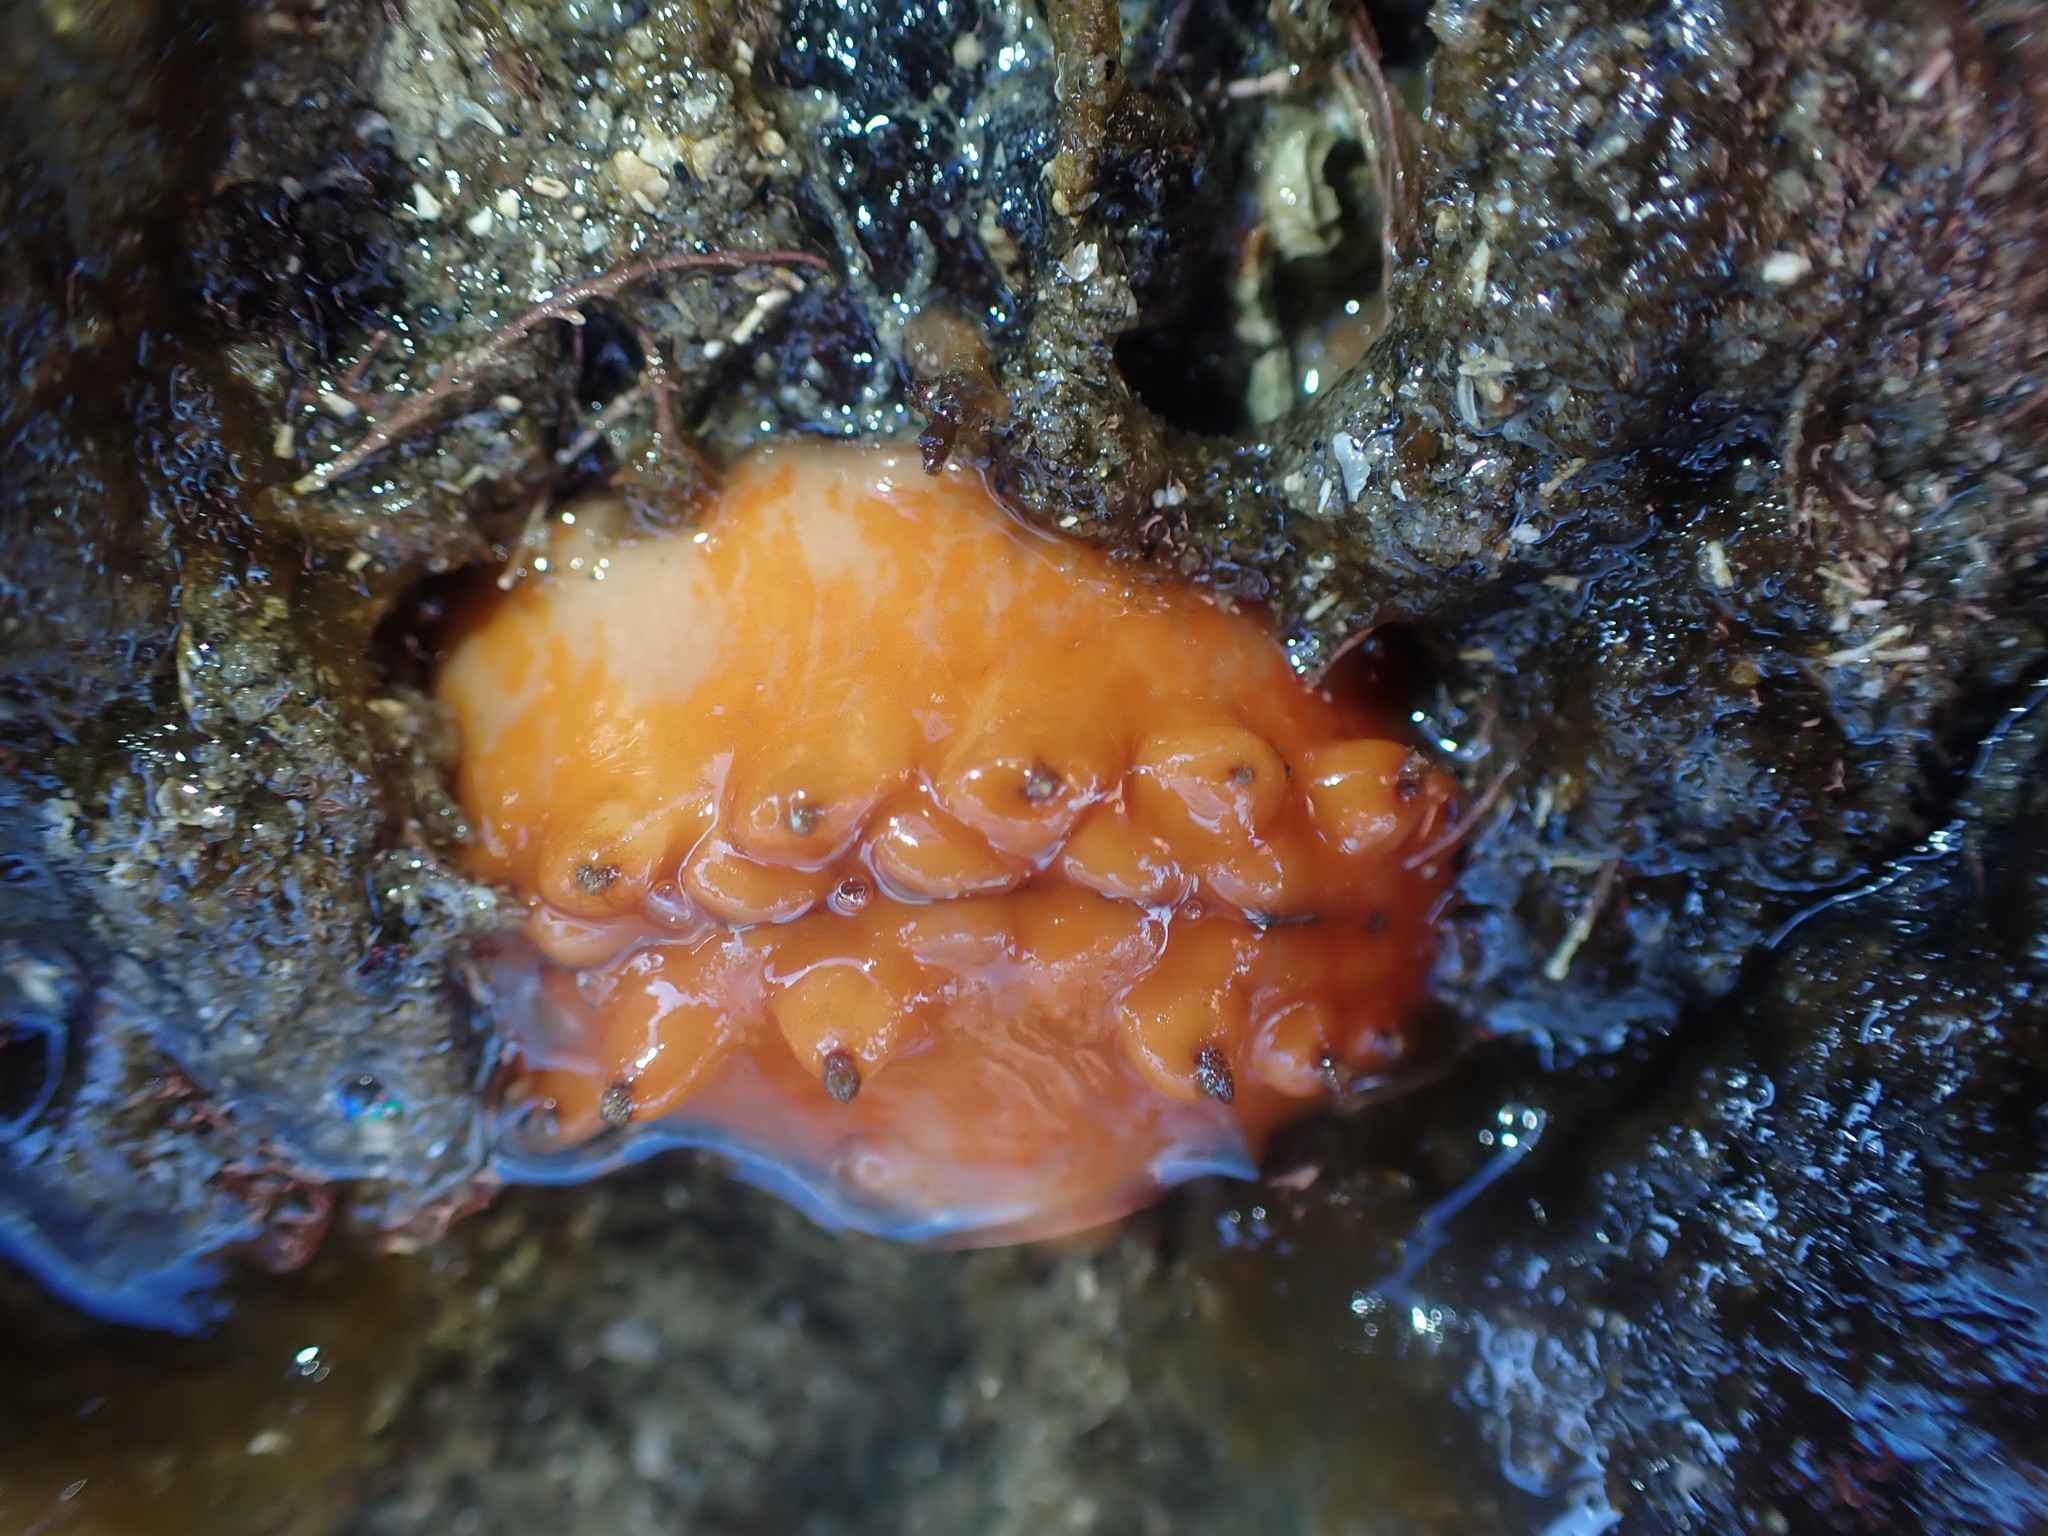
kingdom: Animalia
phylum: Mollusca
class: Polyplacophora
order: Chitonida
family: Acanthochitonidae
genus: Cryptoconchus
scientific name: Cryptoconchus porosus
